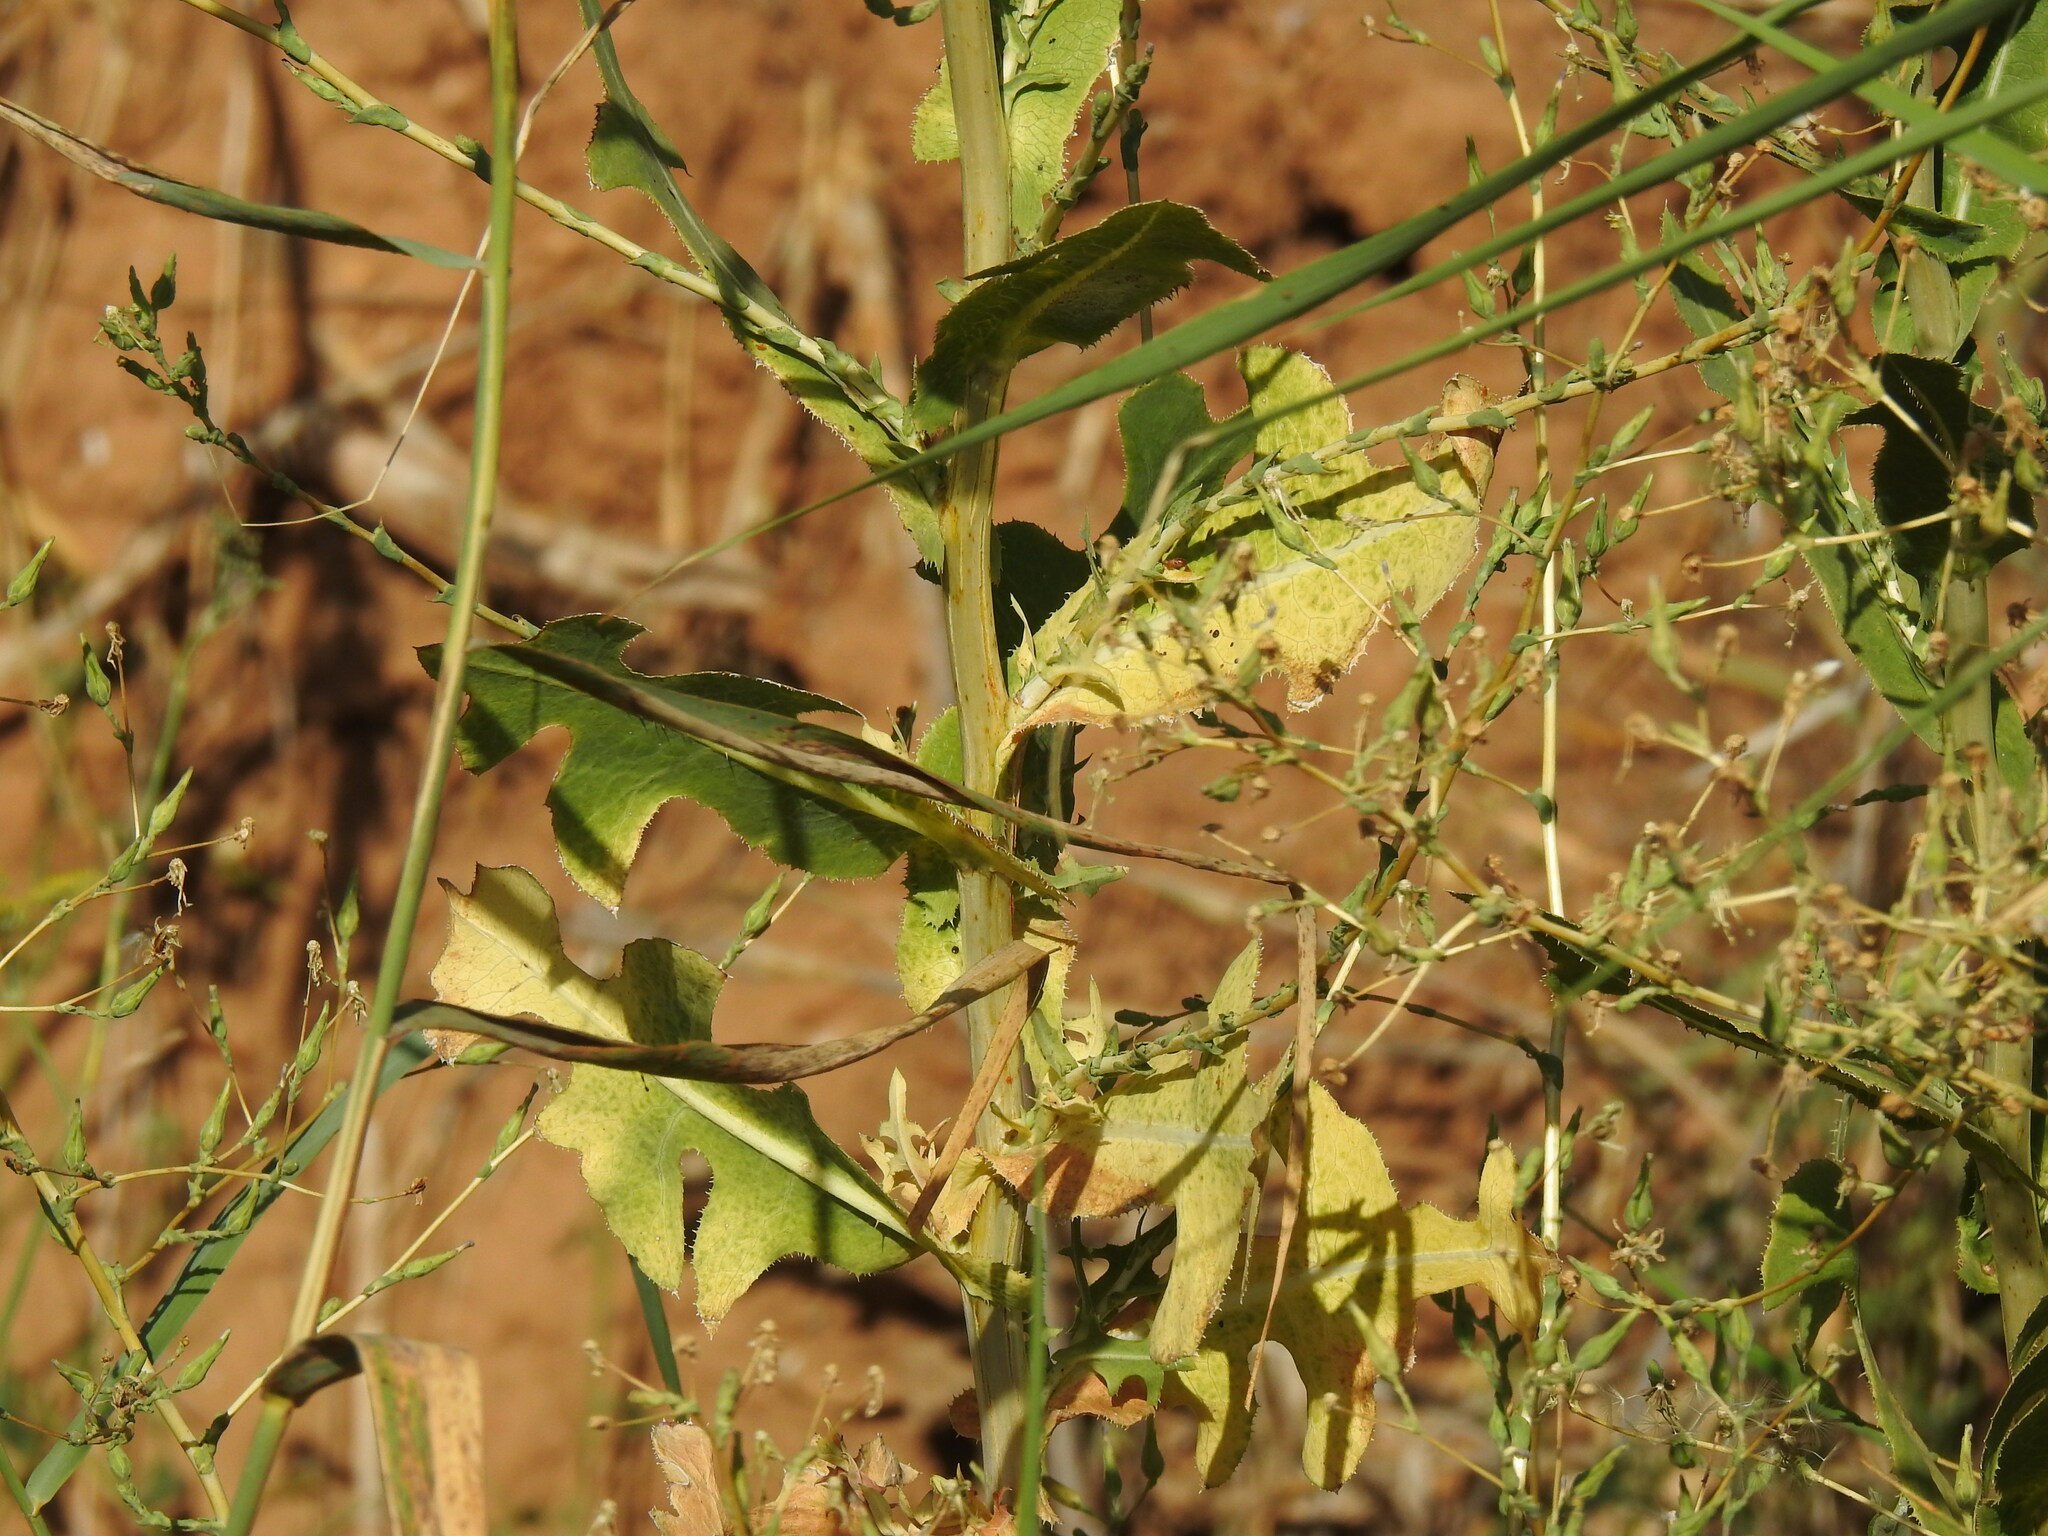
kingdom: Plantae
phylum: Tracheophyta
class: Magnoliopsida
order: Asterales
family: Asteraceae
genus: Lactuca
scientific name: Lactuca serriola
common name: Prickly lettuce
